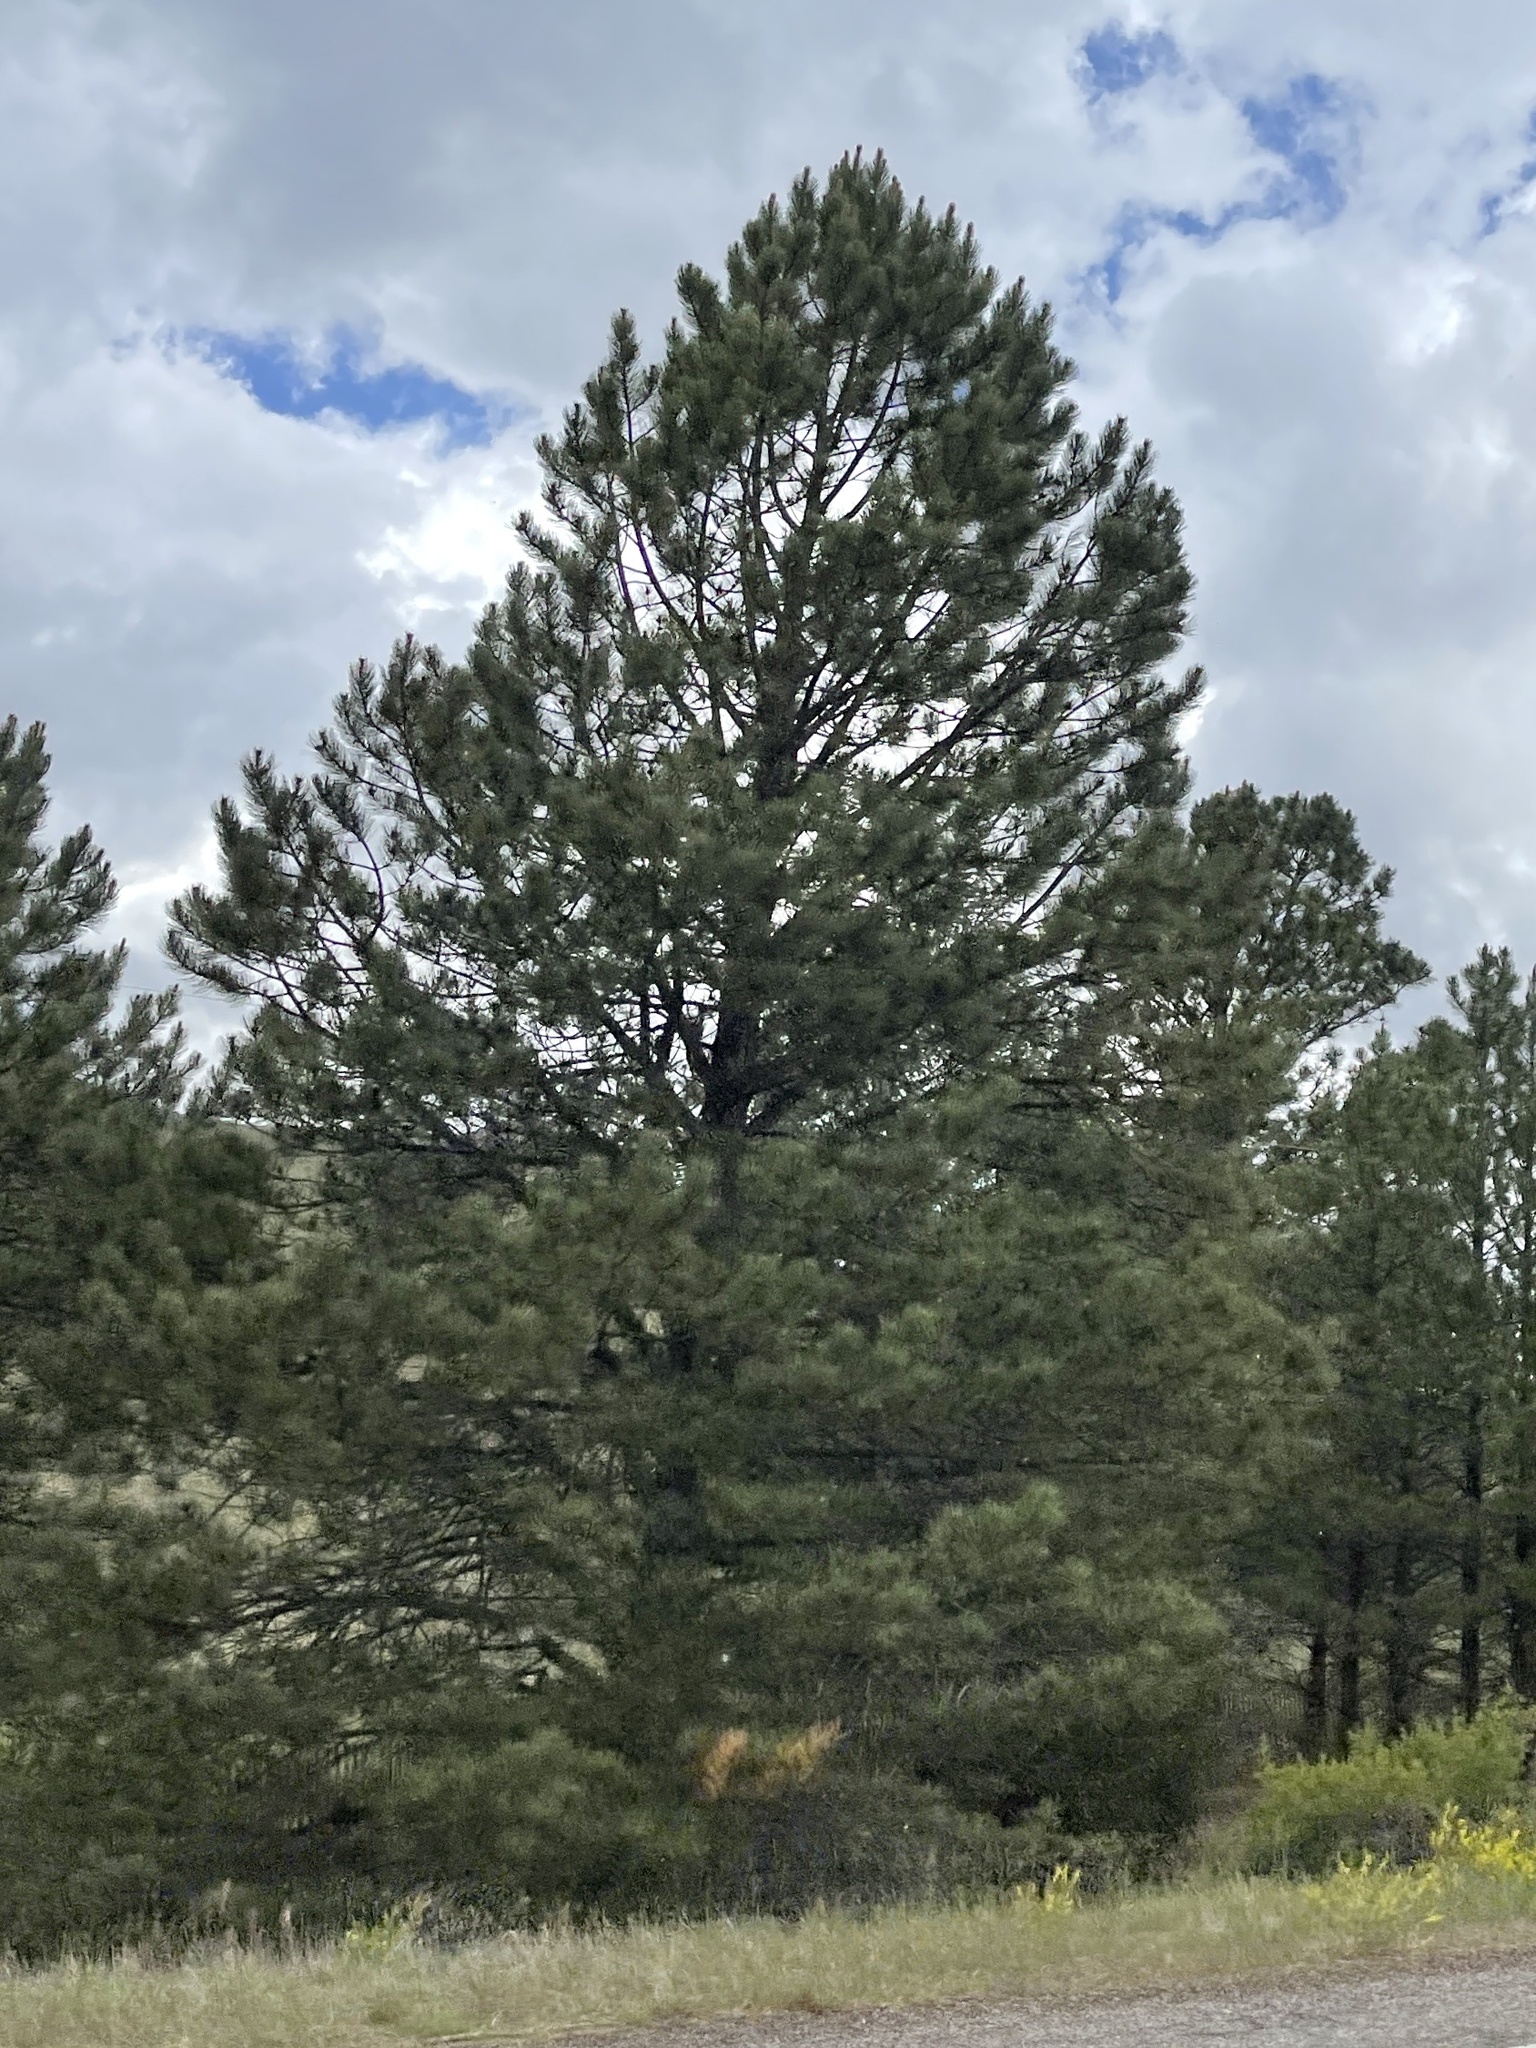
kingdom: Plantae
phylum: Tracheophyta
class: Pinopsida
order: Pinales
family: Pinaceae
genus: Pinus
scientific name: Pinus ponderosa
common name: Western yellow-pine
